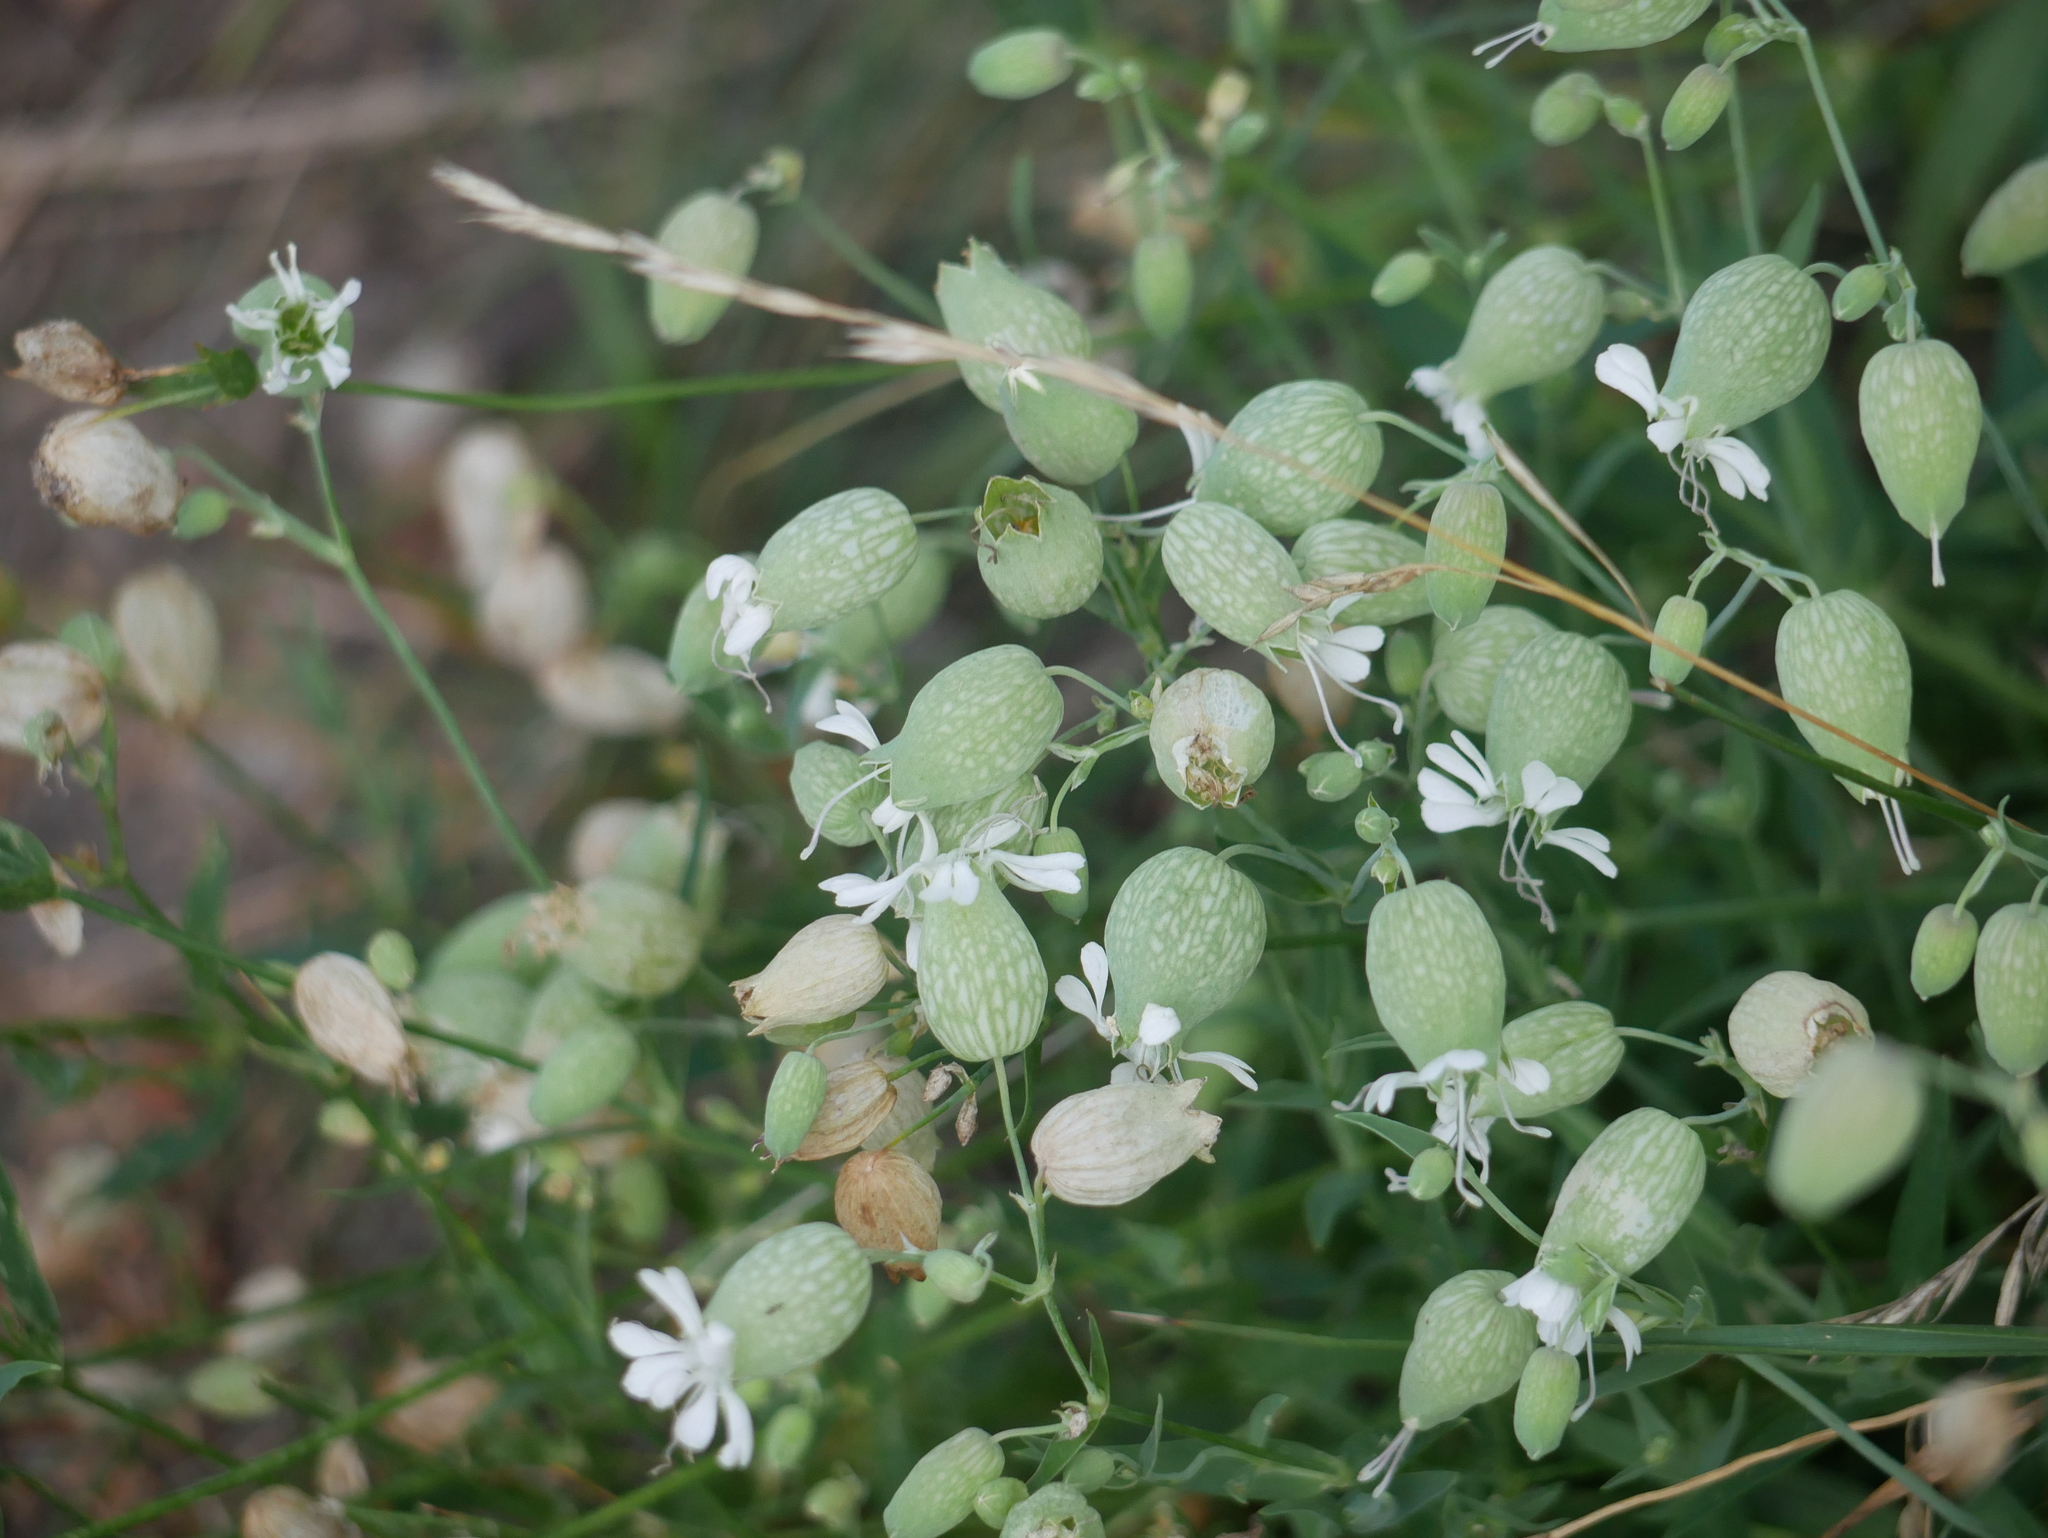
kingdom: Plantae
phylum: Tracheophyta
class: Magnoliopsida
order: Caryophyllales
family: Caryophyllaceae
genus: Silene
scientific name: Silene vulgaris
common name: Bladder campion
